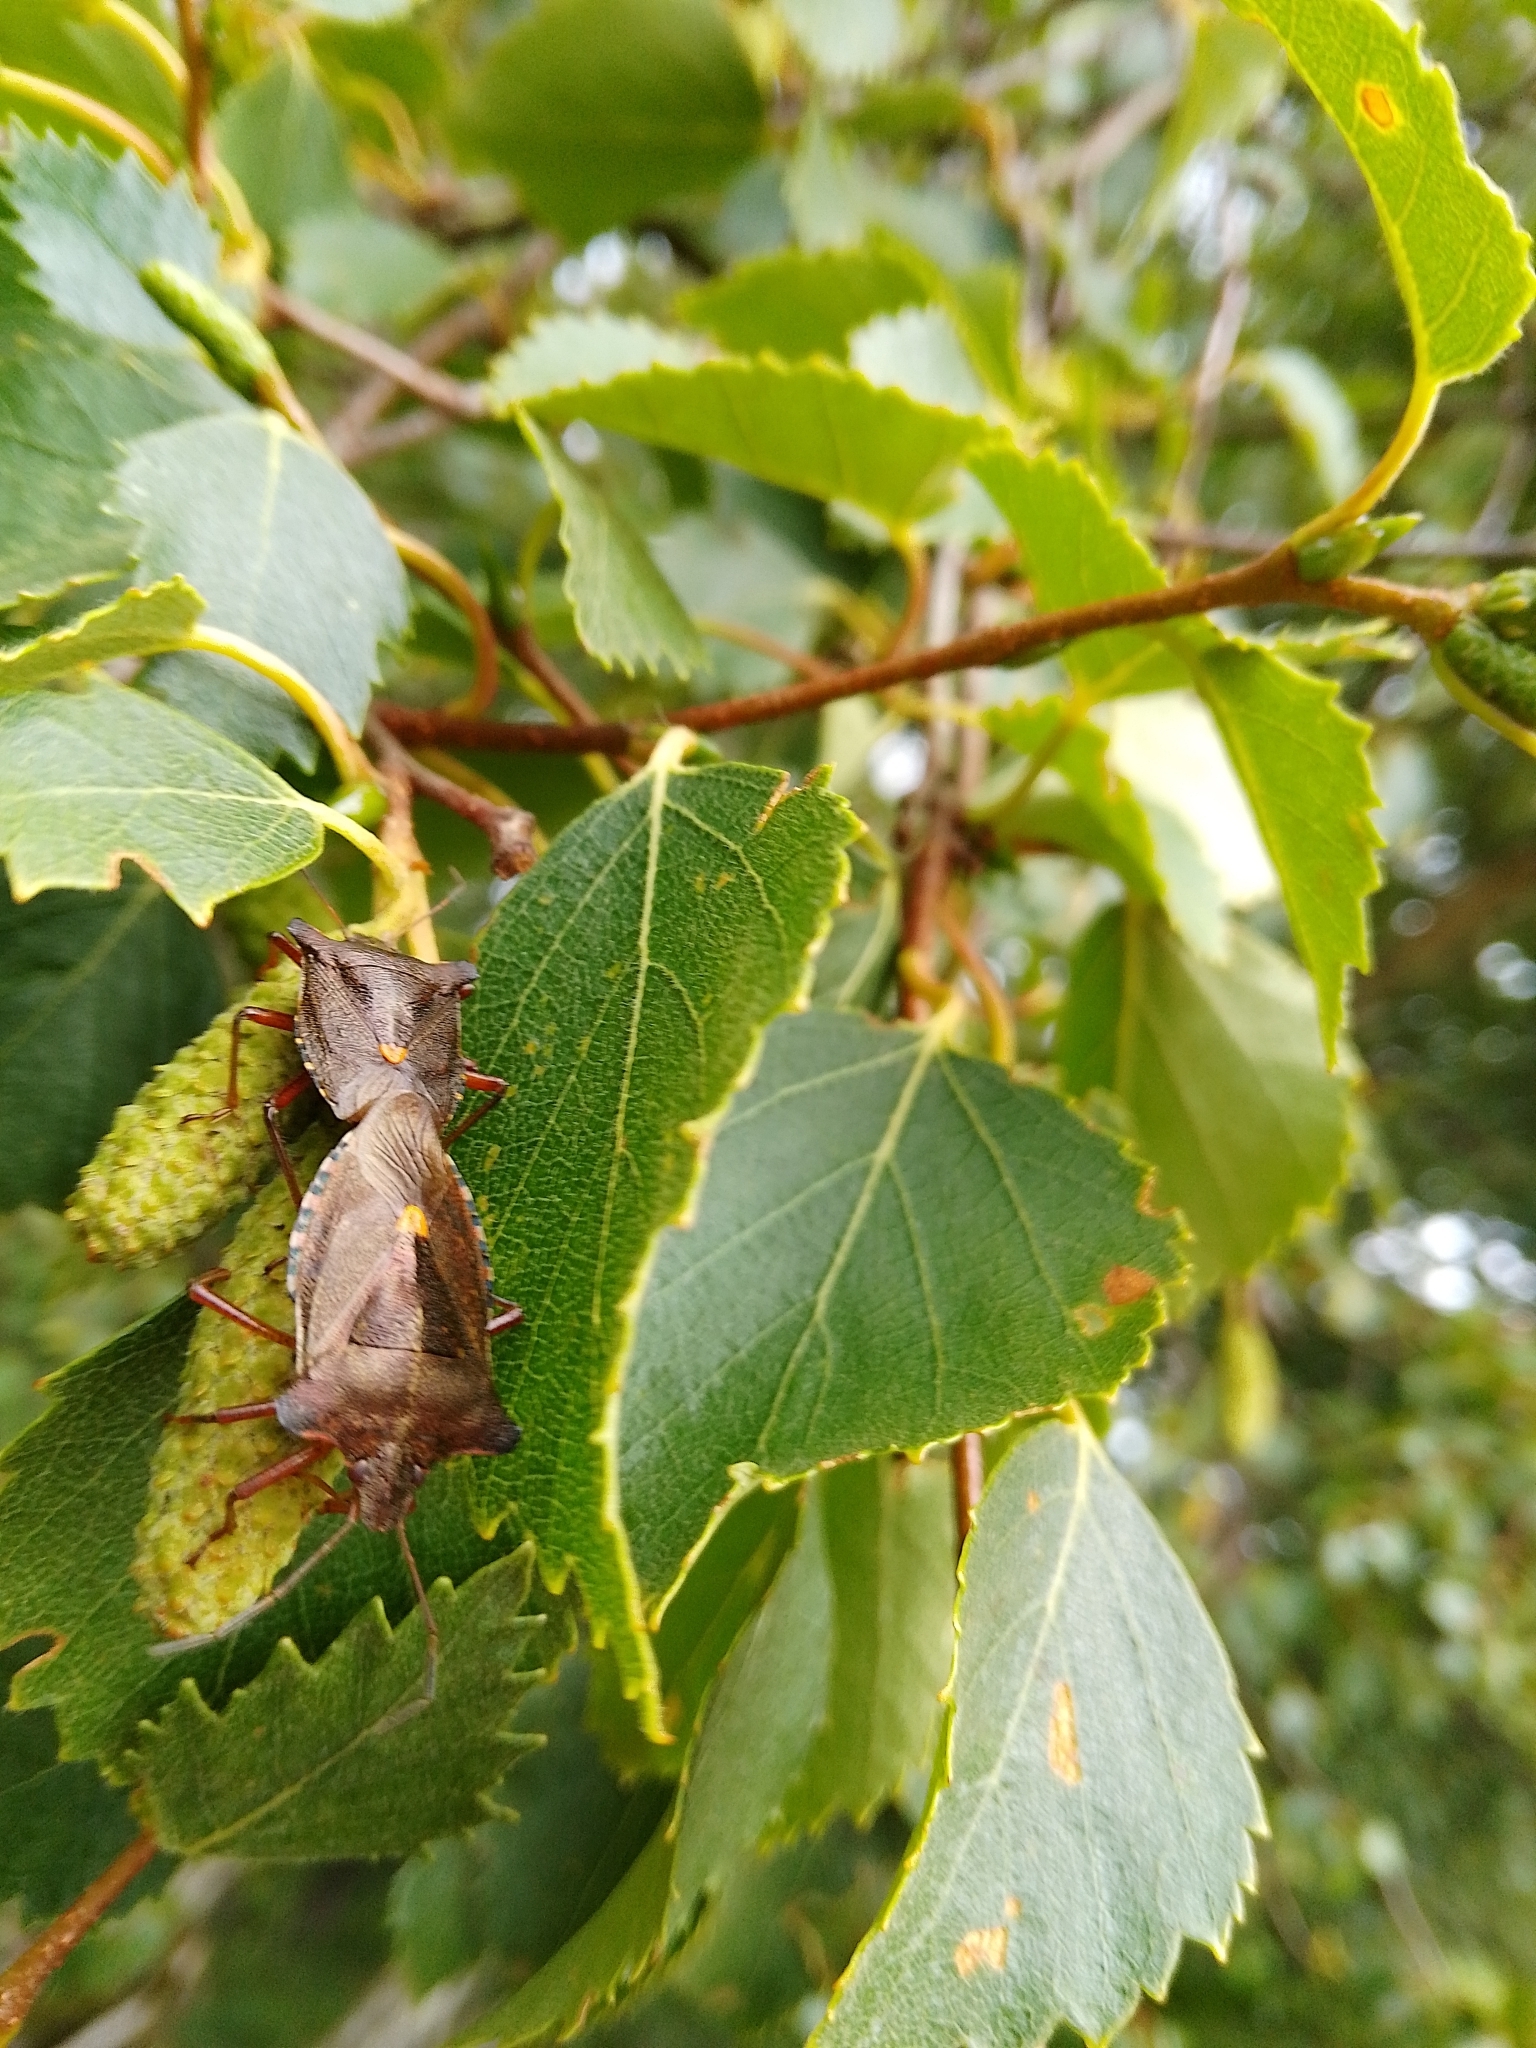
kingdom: Animalia
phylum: Arthropoda
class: Insecta
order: Hemiptera
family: Pentatomidae
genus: Pentatoma
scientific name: Pentatoma rufipes
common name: Forest bug
